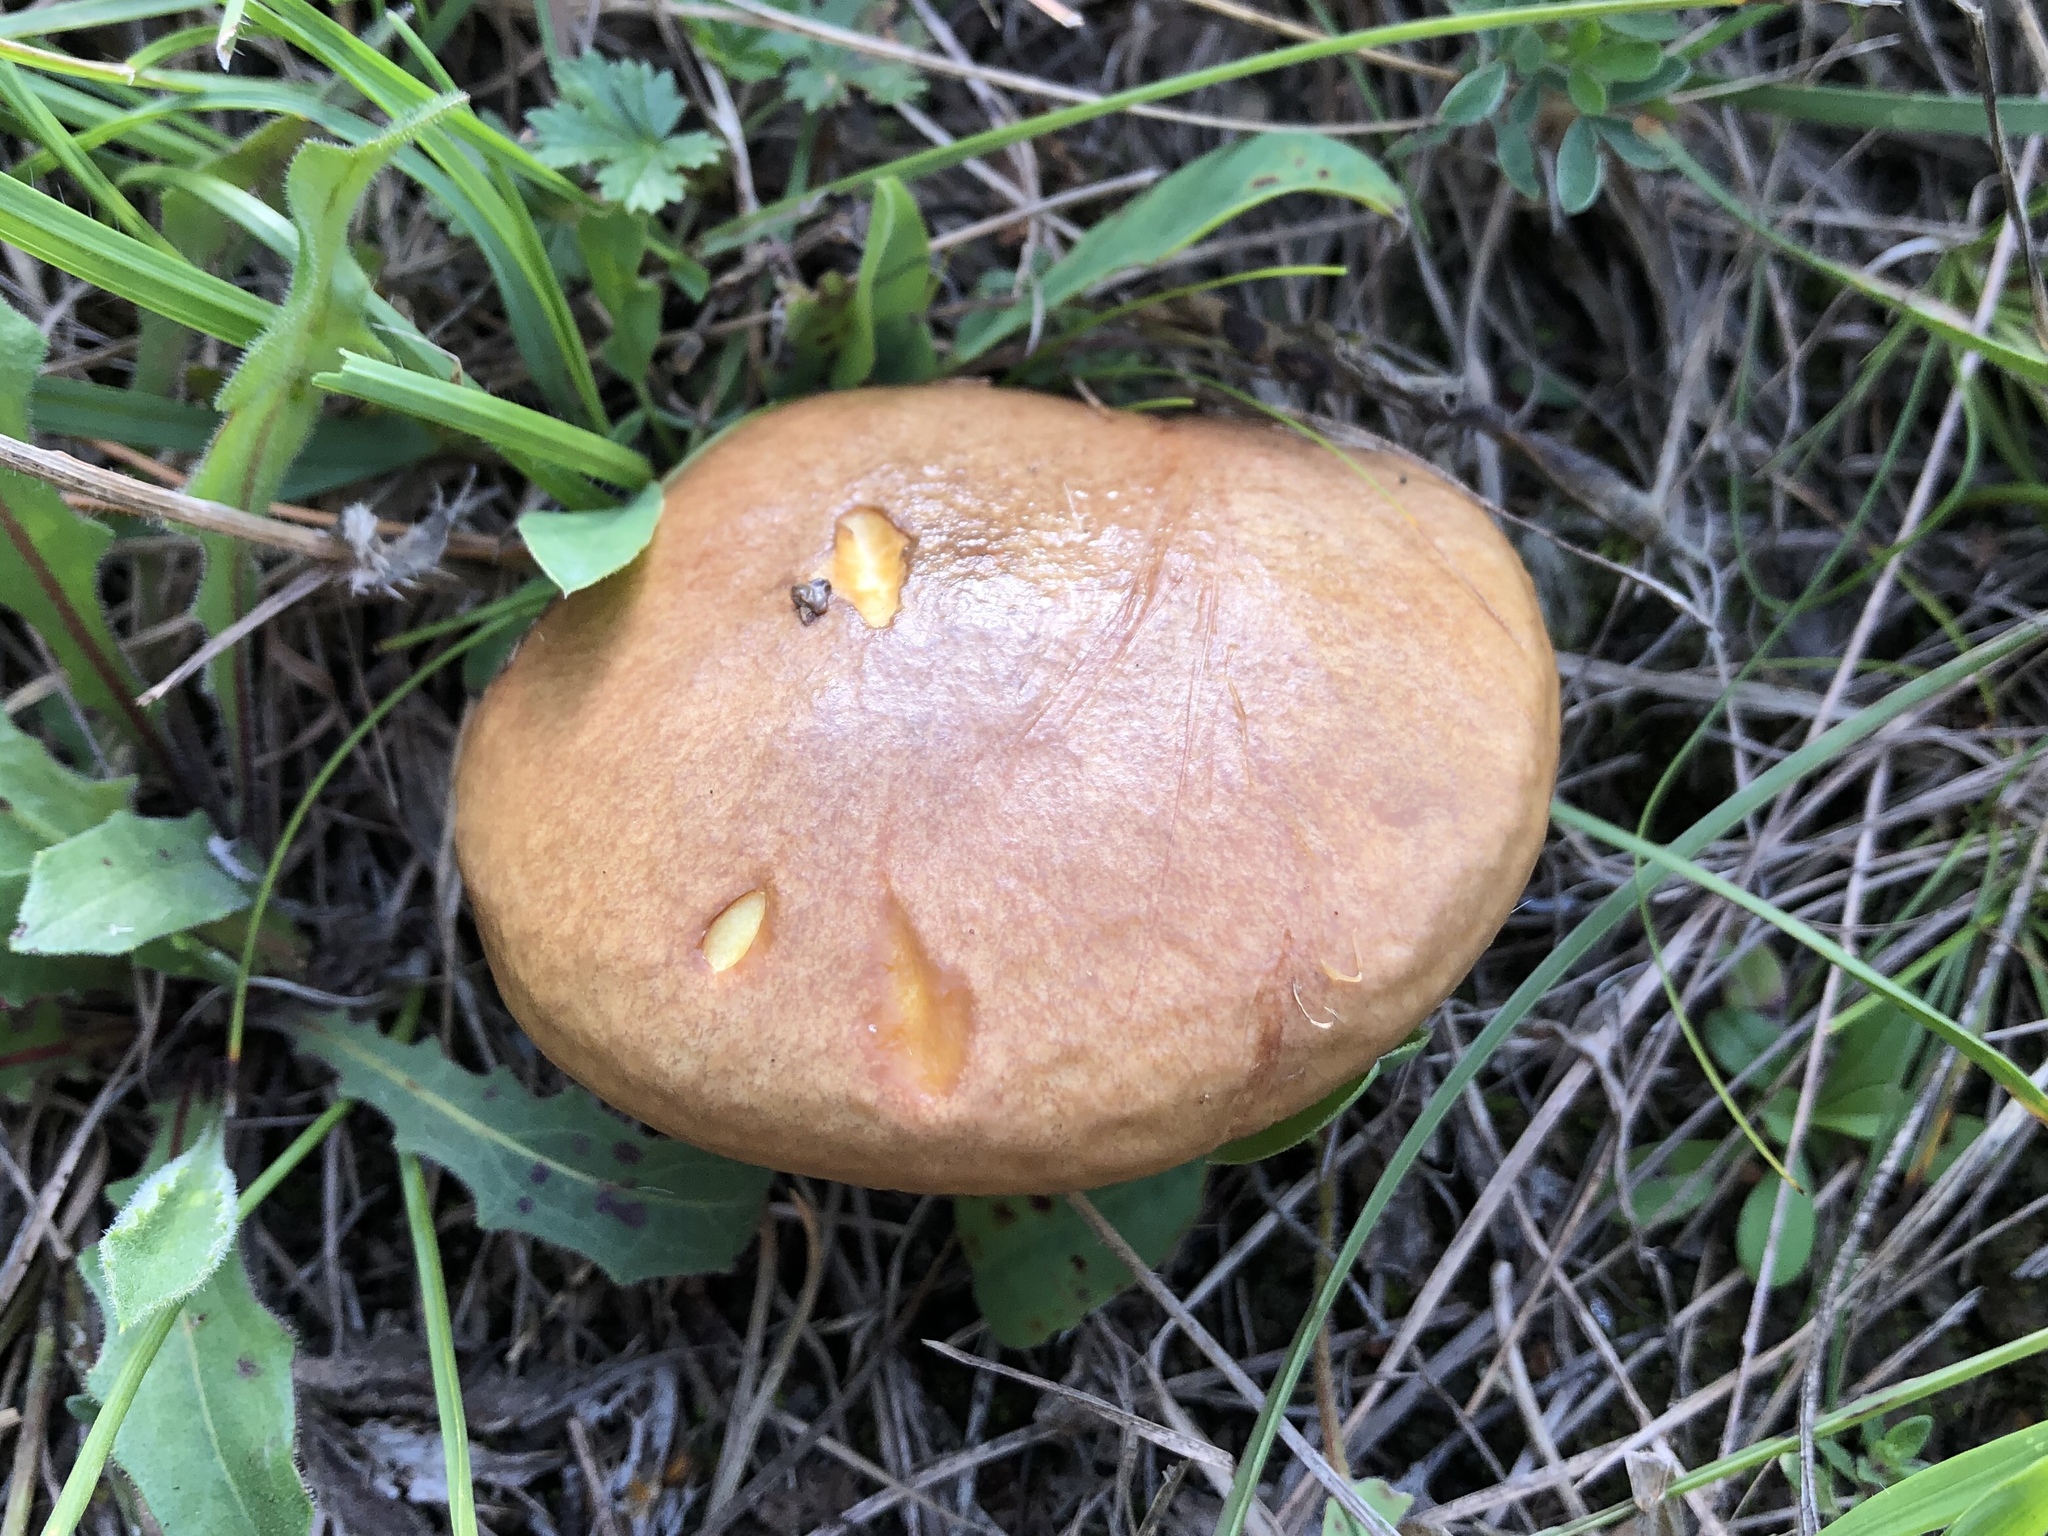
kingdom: Fungi
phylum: Basidiomycota
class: Agaricomycetes
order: Boletales
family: Suillaceae
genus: Suillus
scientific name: Suillus granulatus
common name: Weeping bolete
